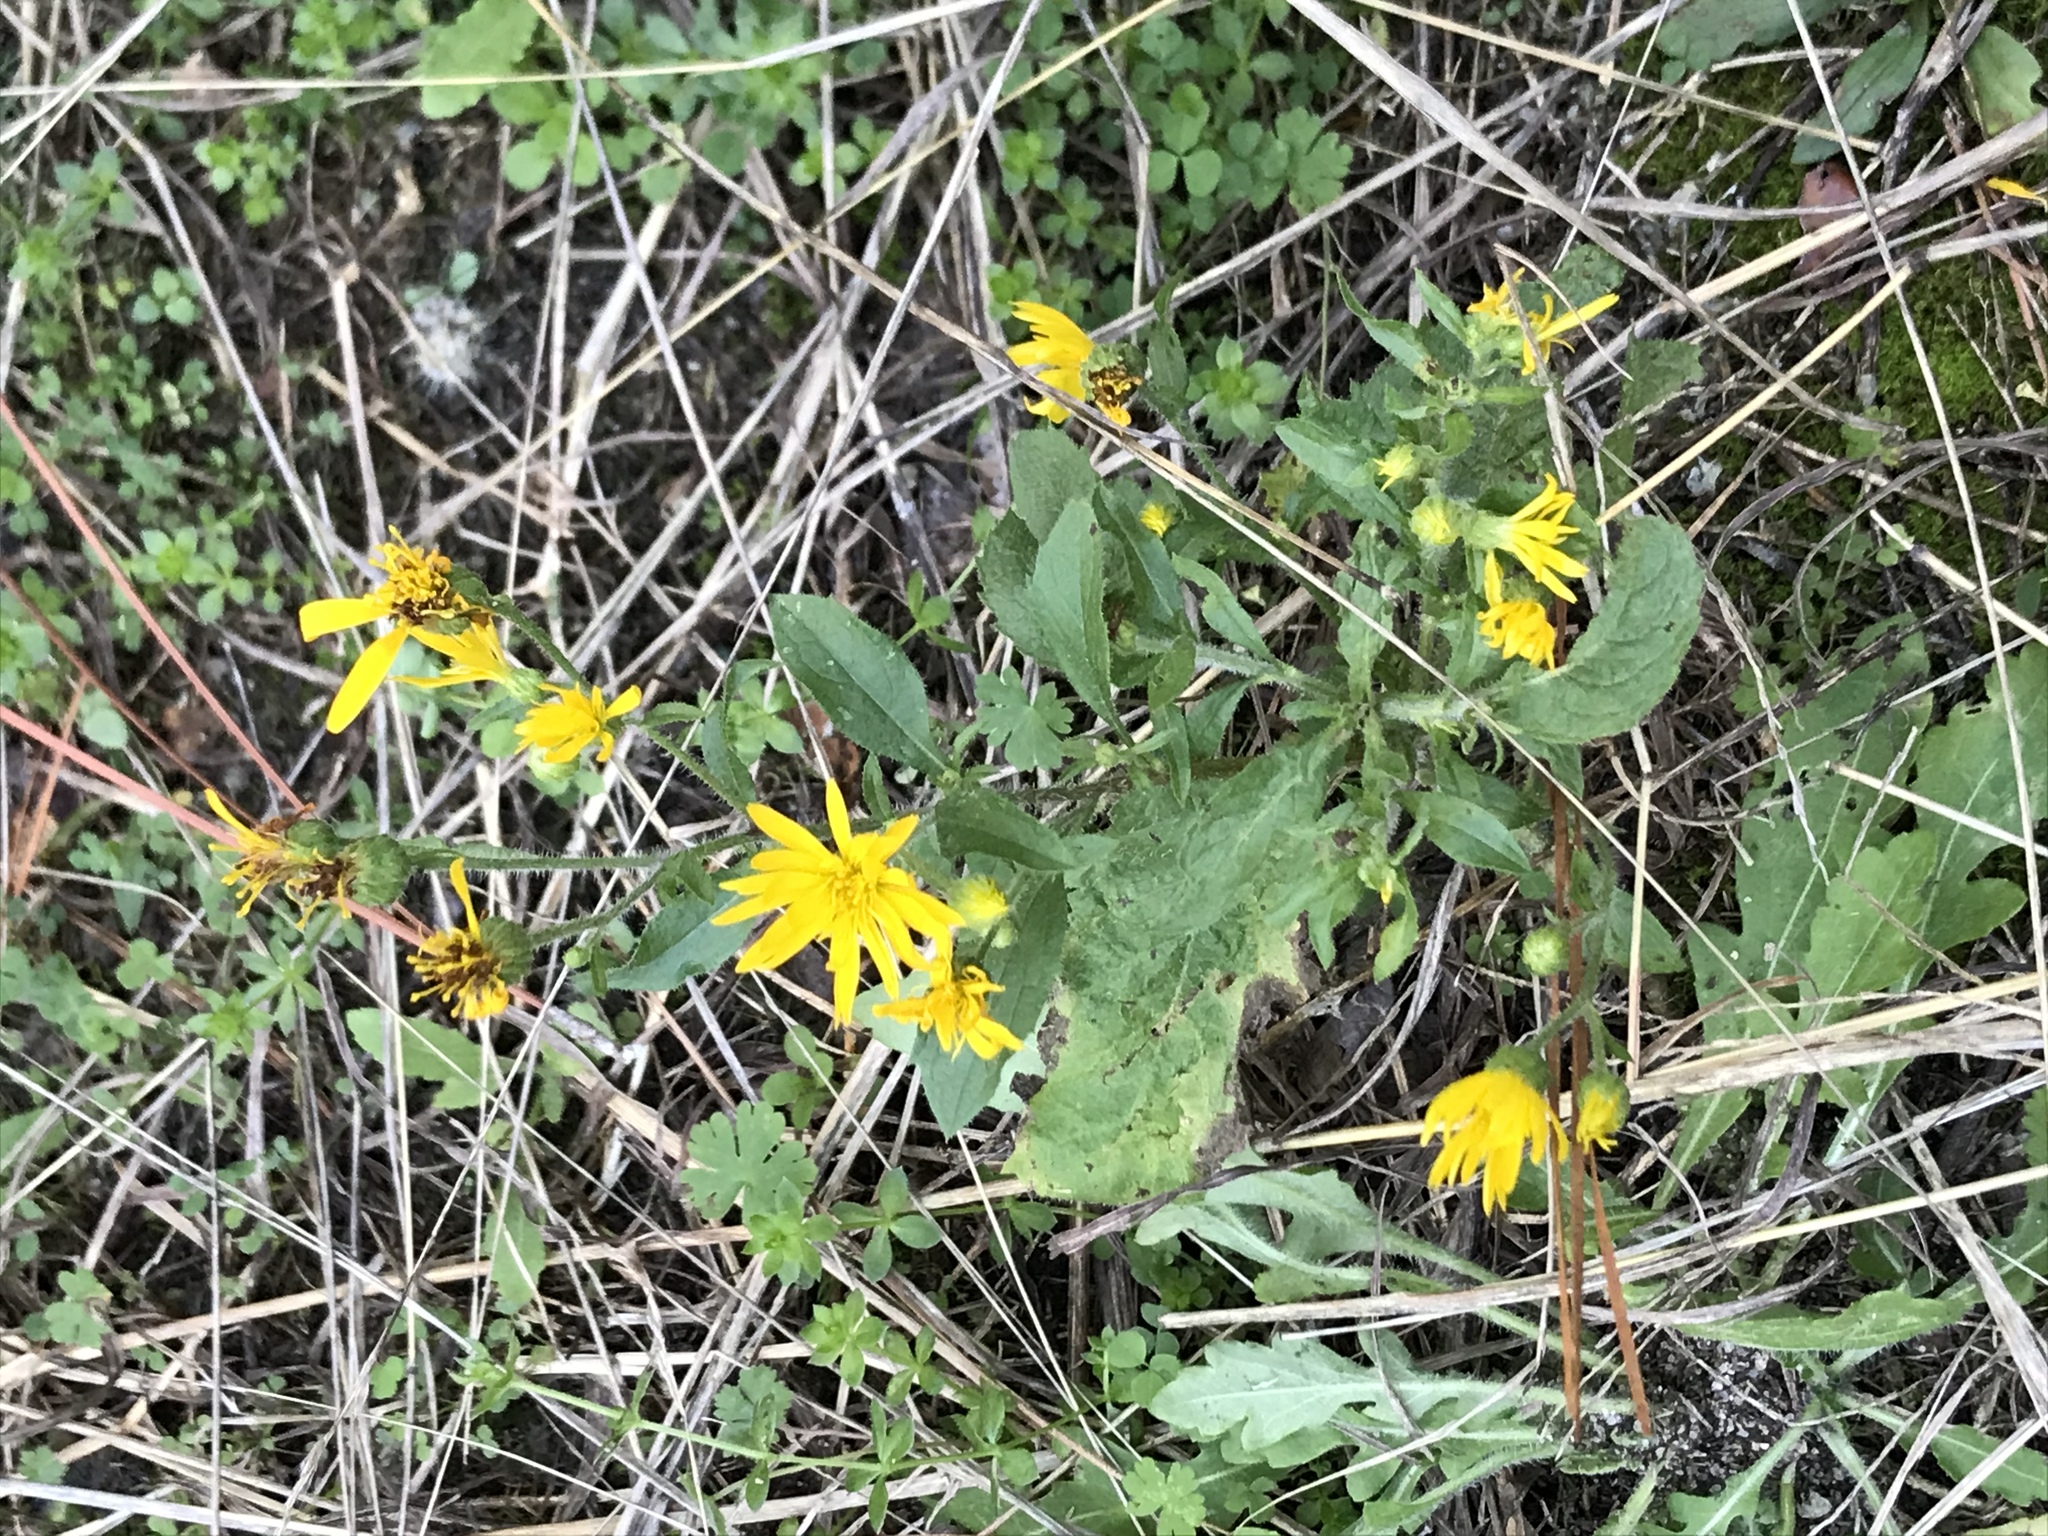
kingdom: Plantae
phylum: Tracheophyta
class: Magnoliopsida
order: Asterales
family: Asteraceae
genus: Heterotheca
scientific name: Heterotheca subaxillaris
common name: Camphorweed
